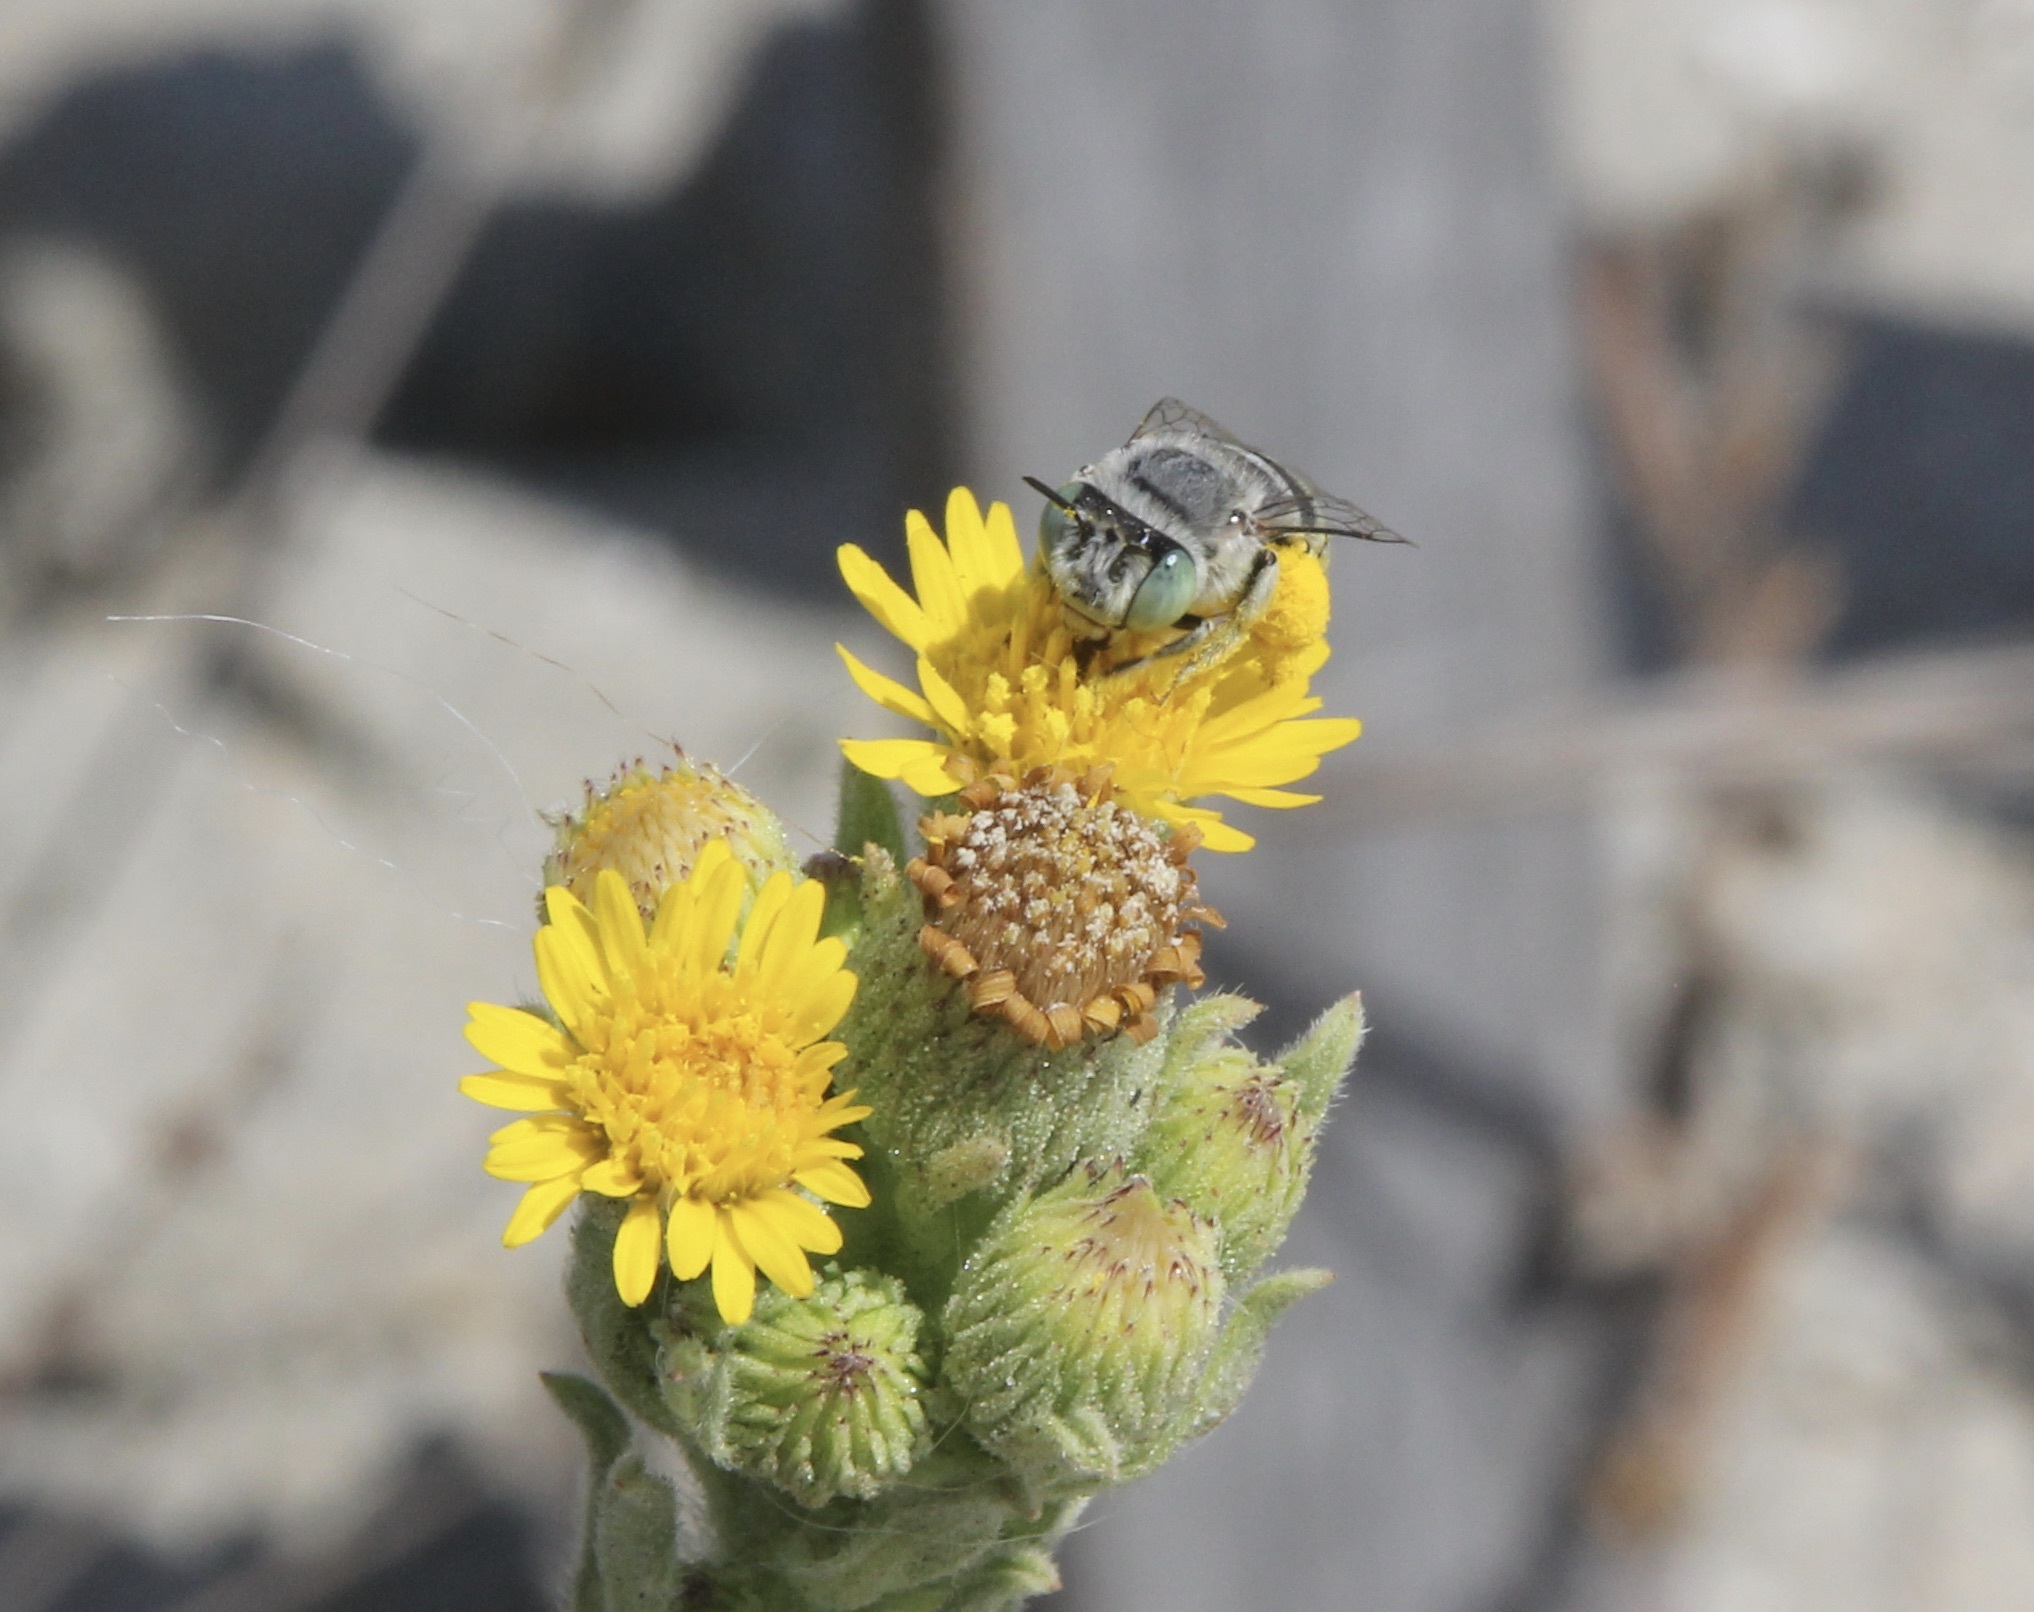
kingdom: Plantae
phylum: Tracheophyta
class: Magnoliopsida
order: Asterales
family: Asteraceae
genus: Heterotheca
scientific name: Heterotheca grandiflora
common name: Telegraphweed
